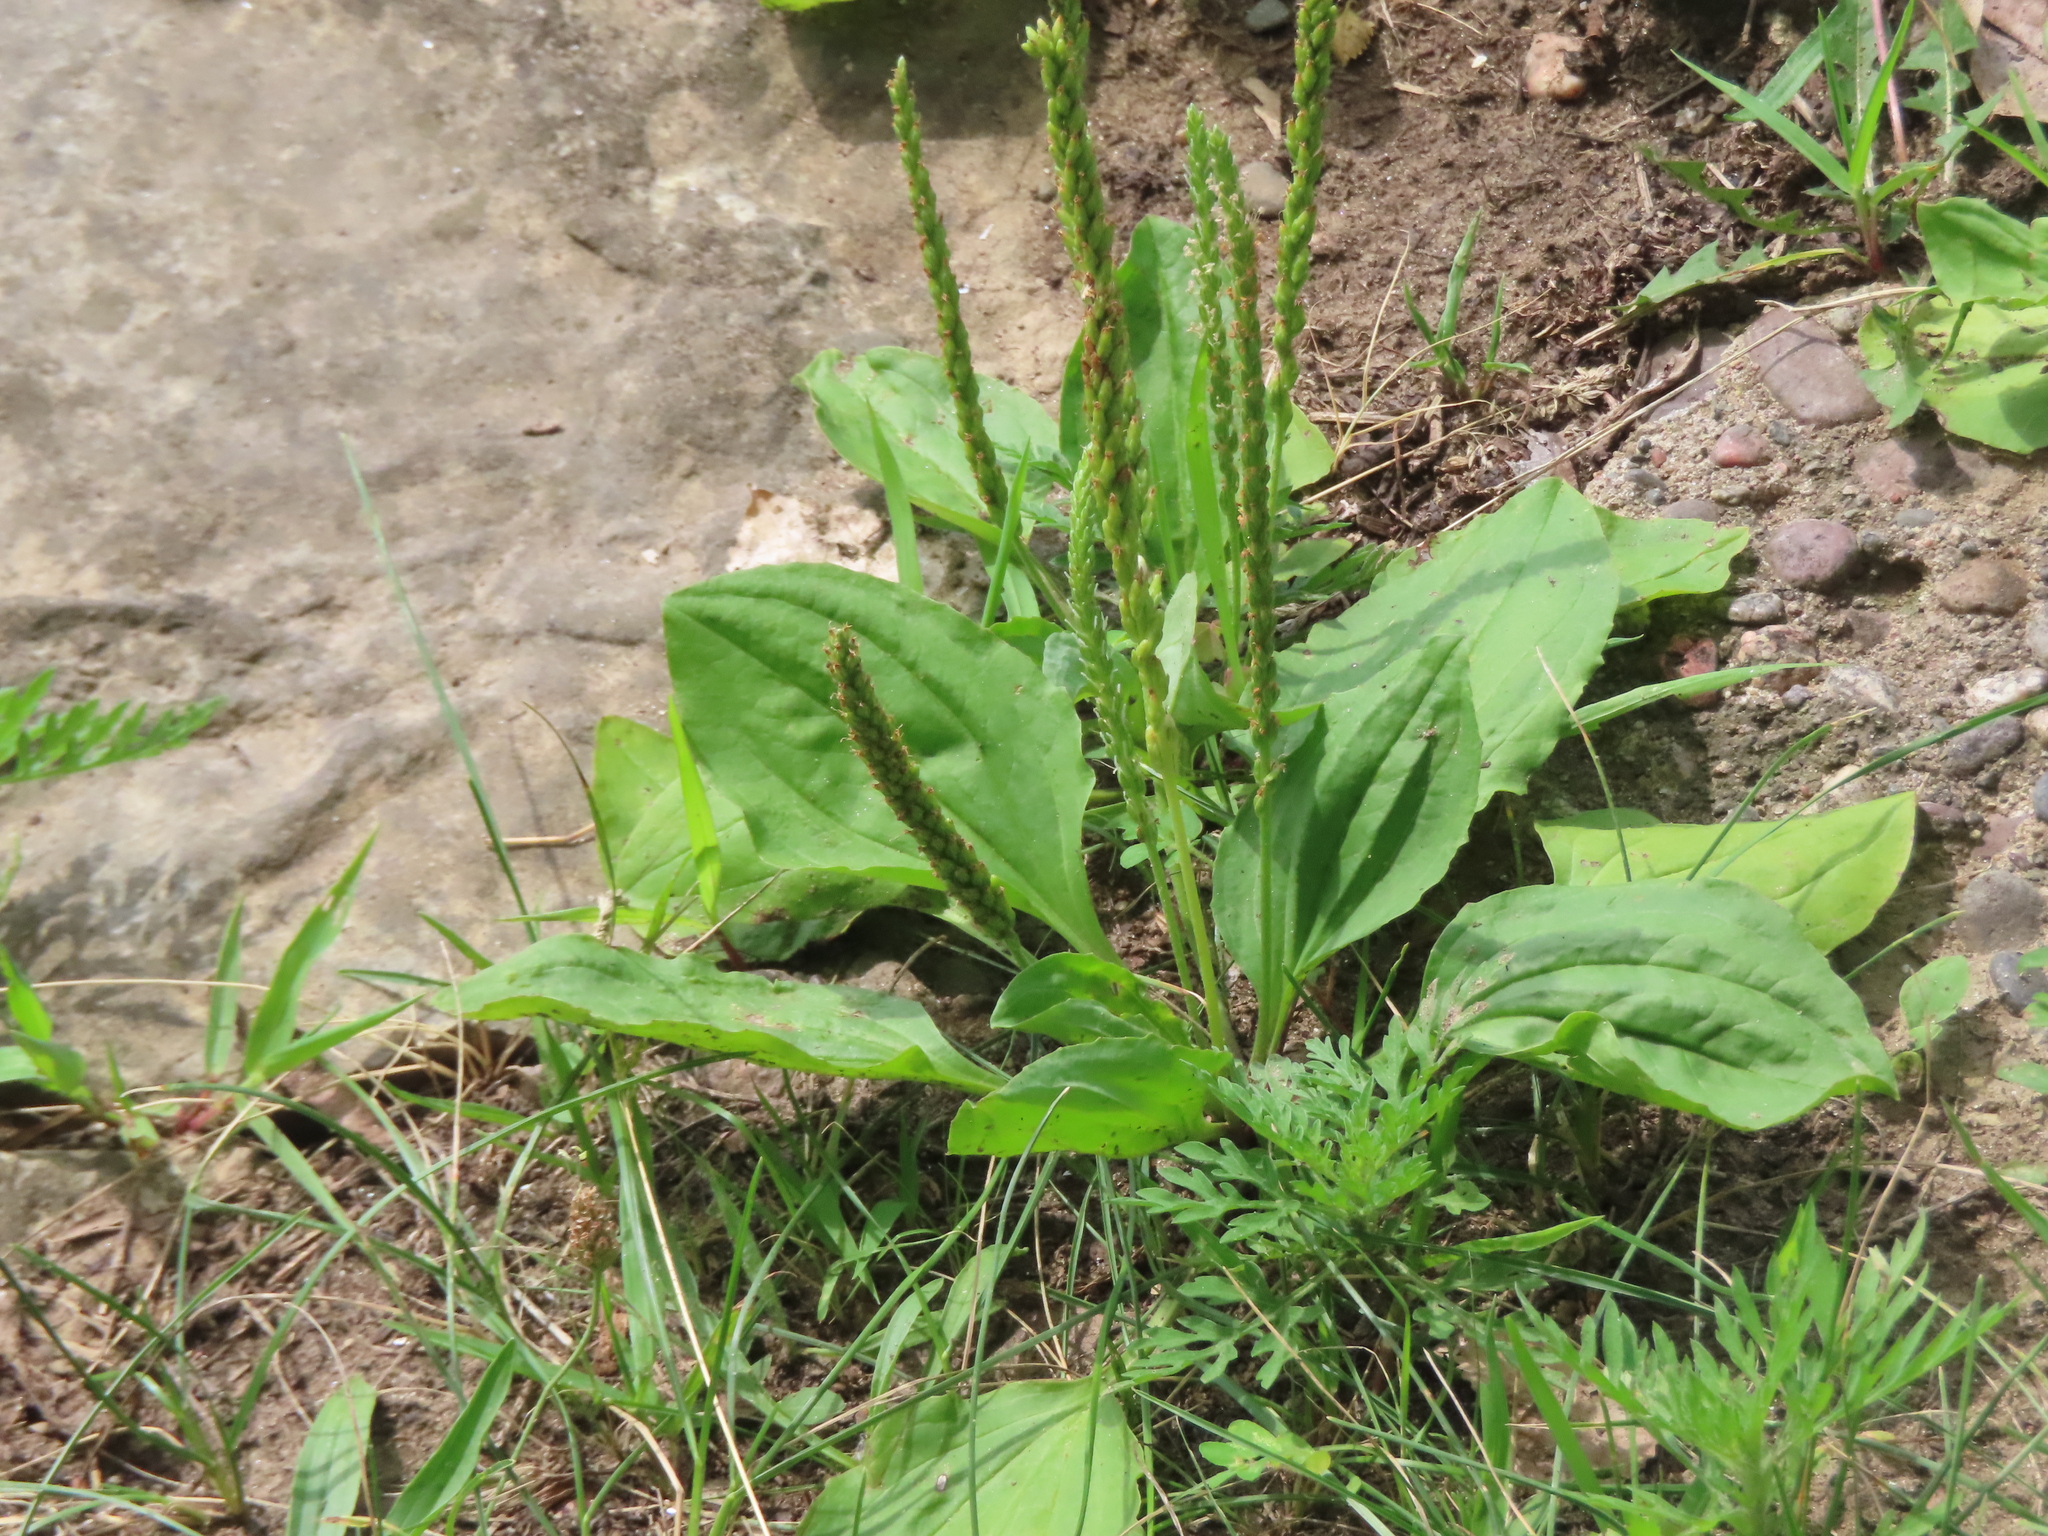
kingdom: Plantae
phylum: Tracheophyta
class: Magnoliopsida
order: Lamiales
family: Plantaginaceae
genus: Plantago
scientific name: Plantago rugelii
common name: American plantain
